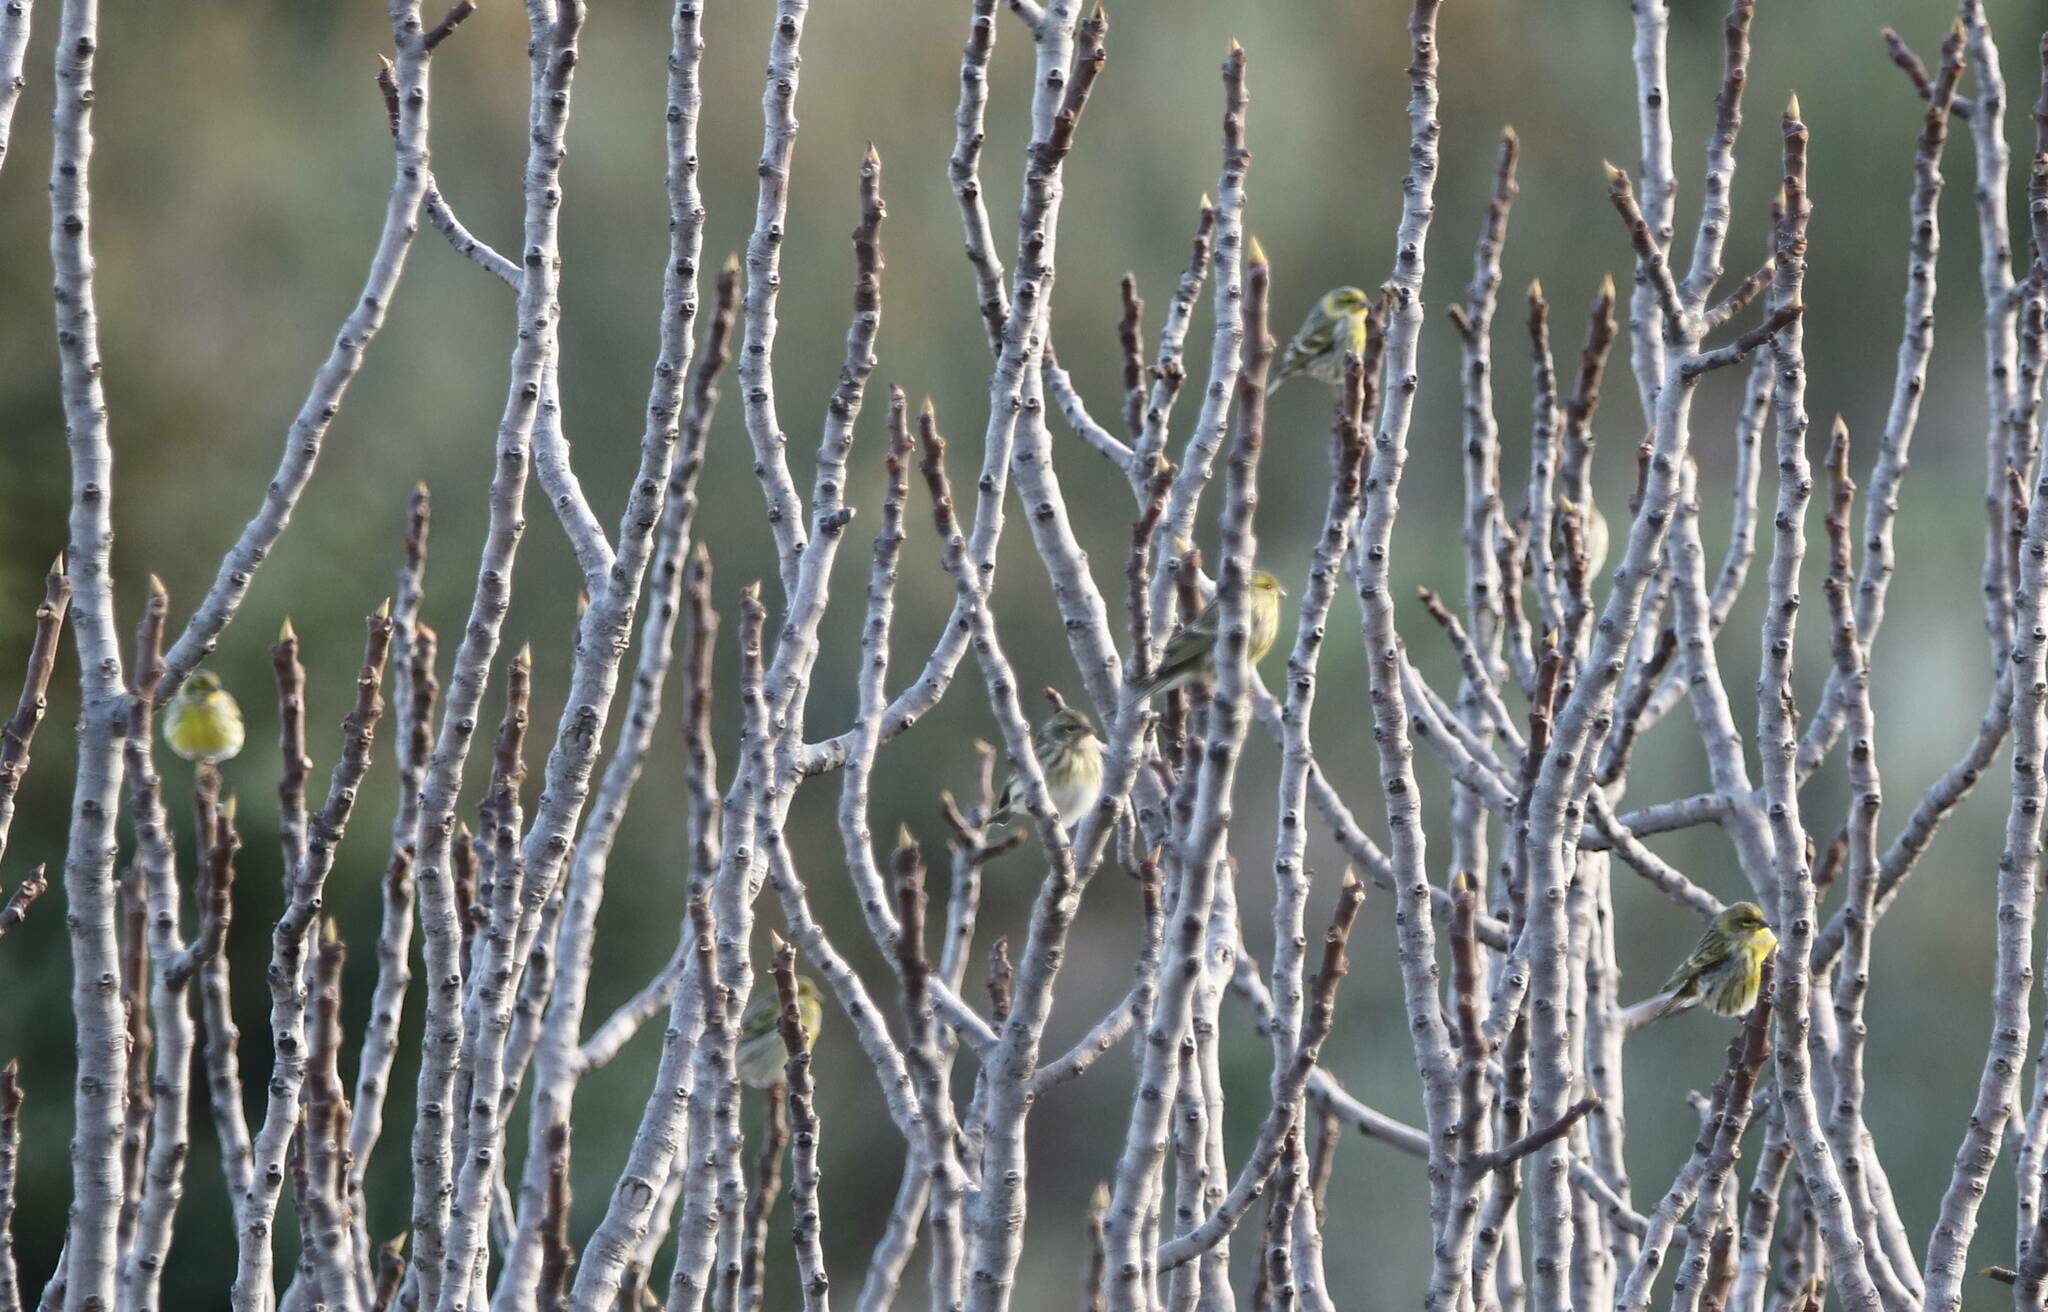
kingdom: Animalia
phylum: Chordata
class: Aves
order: Passeriformes
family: Fringillidae
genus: Spinus
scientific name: Spinus spinus
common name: Eurasian siskin
